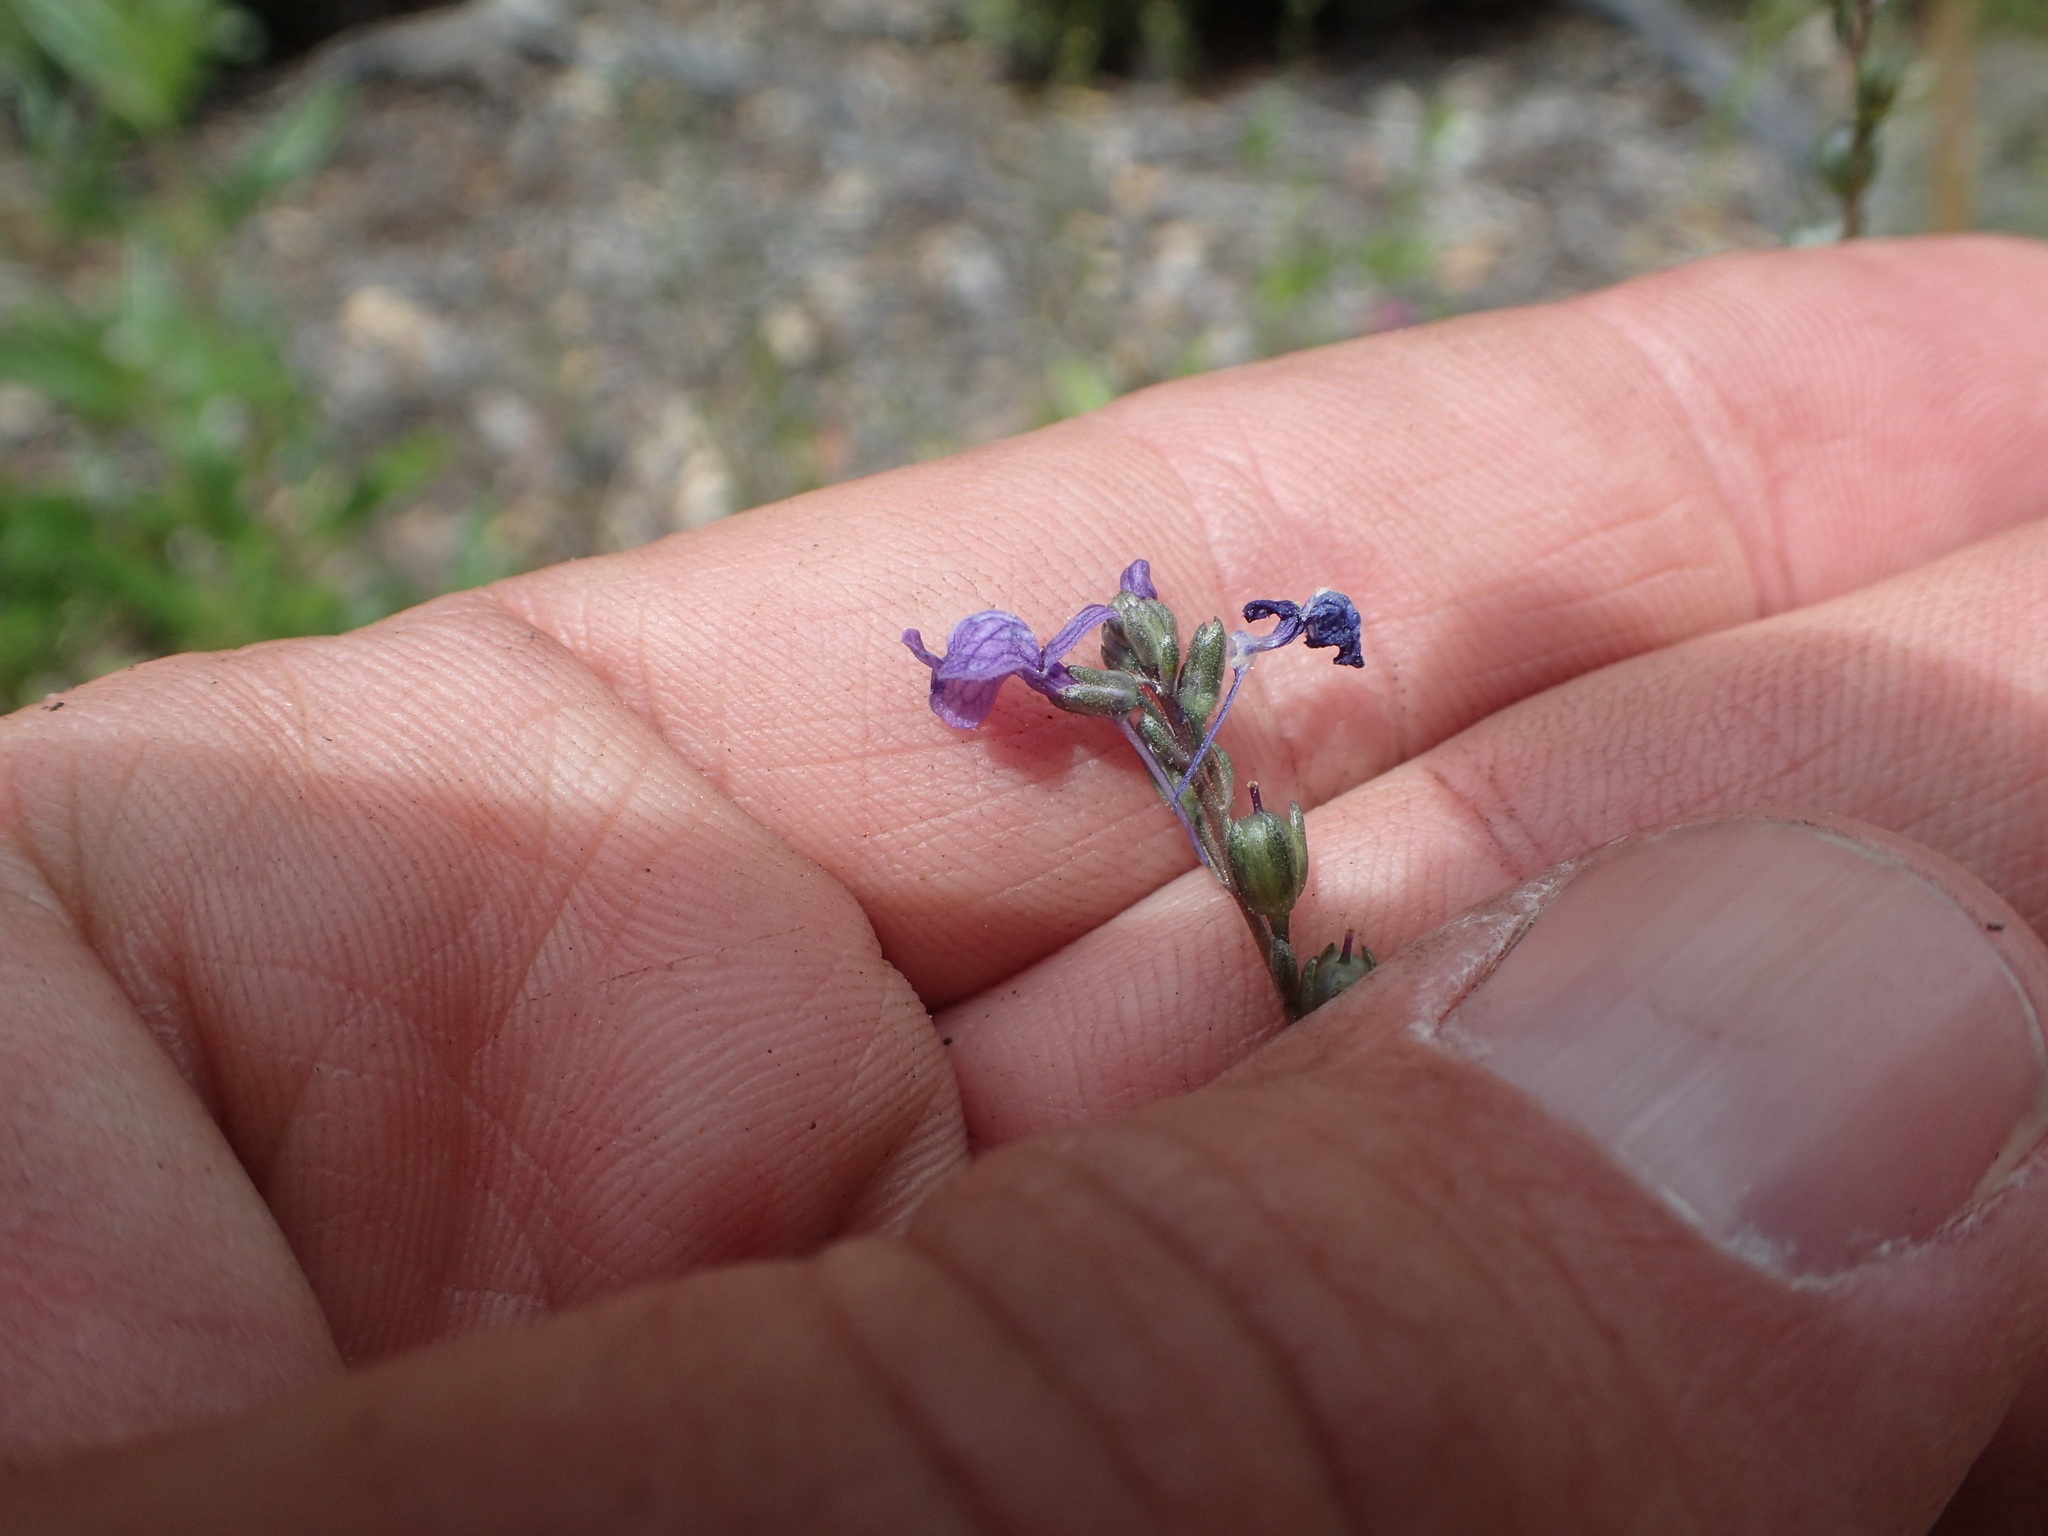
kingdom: Plantae
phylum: Tracheophyta
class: Magnoliopsida
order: Lamiales
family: Plantaginaceae
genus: Nuttallanthus
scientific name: Nuttallanthus texanus
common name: Texas toadflax
